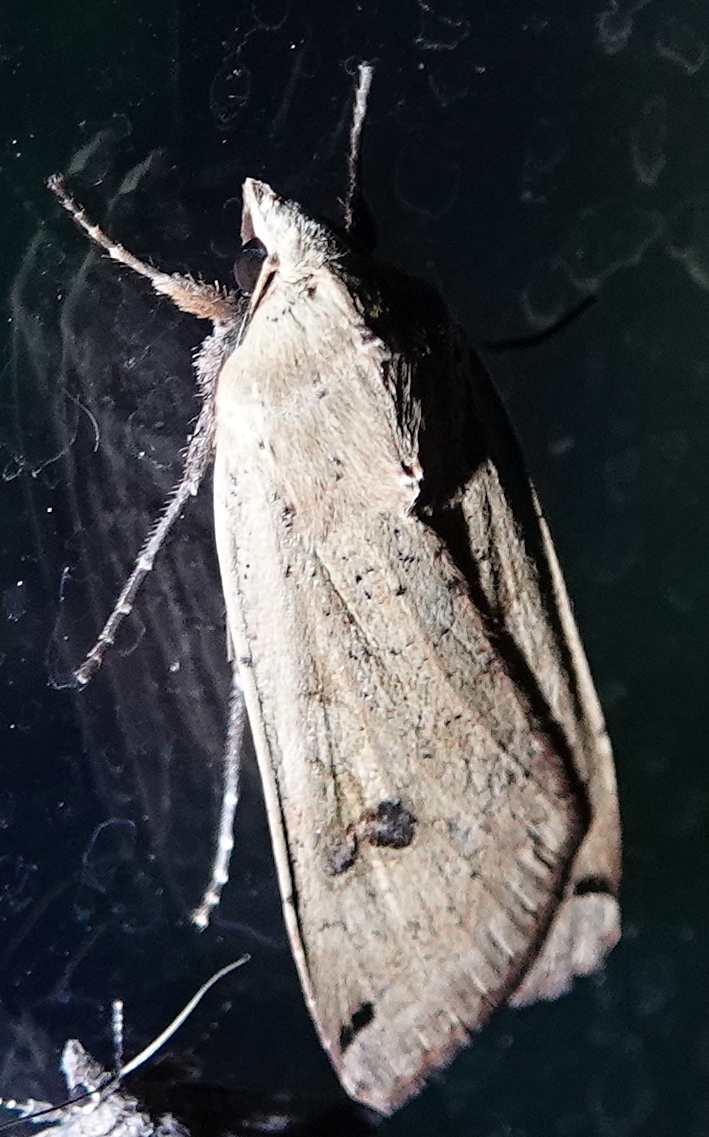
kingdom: Animalia
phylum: Arthropoda
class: Insecta
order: Lepidoptera
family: Noctuidae
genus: Noctua
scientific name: Noctua pronuba
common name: Large yellow underwing
